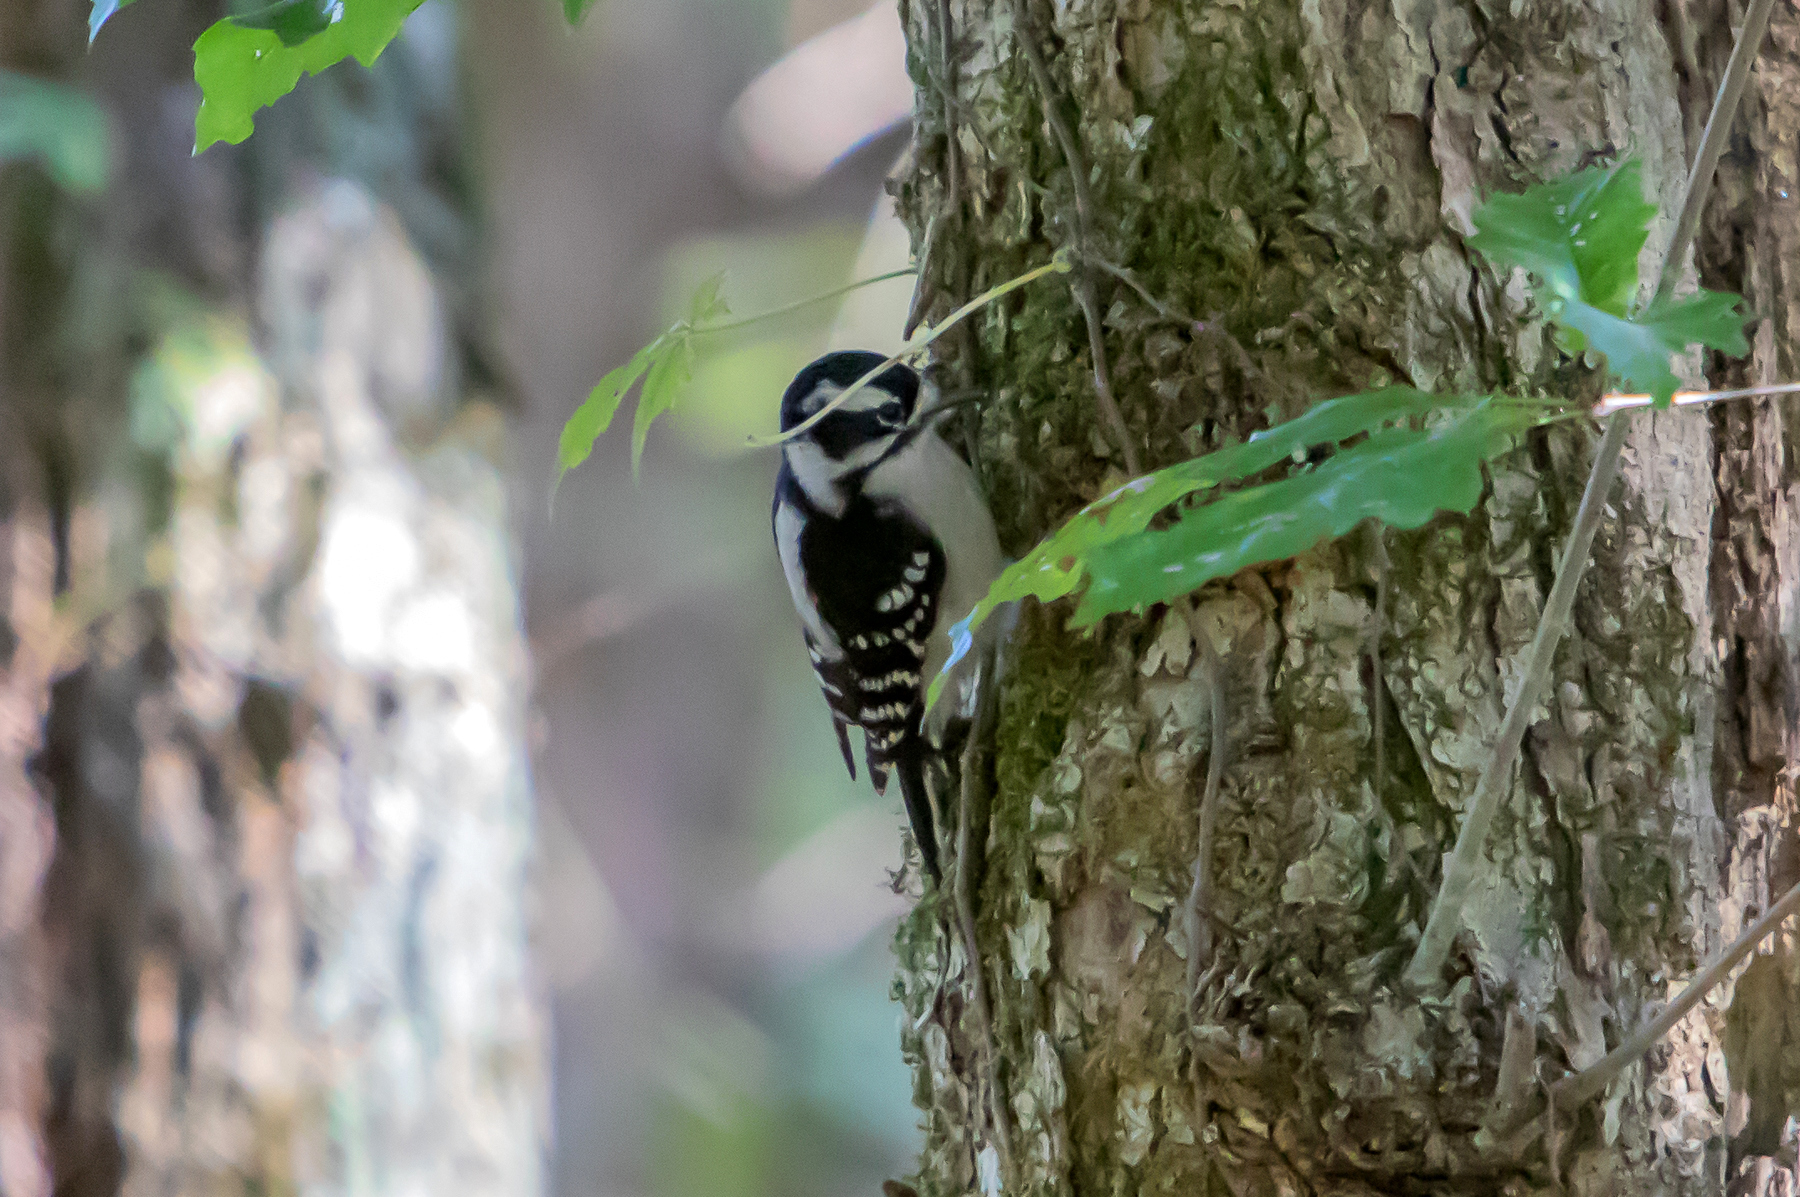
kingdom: Animalia
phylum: Chordata
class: Aves
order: Piciformes
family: Picidae
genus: Dryobates
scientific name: Dryobates pubescens
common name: Downy woodpecker
